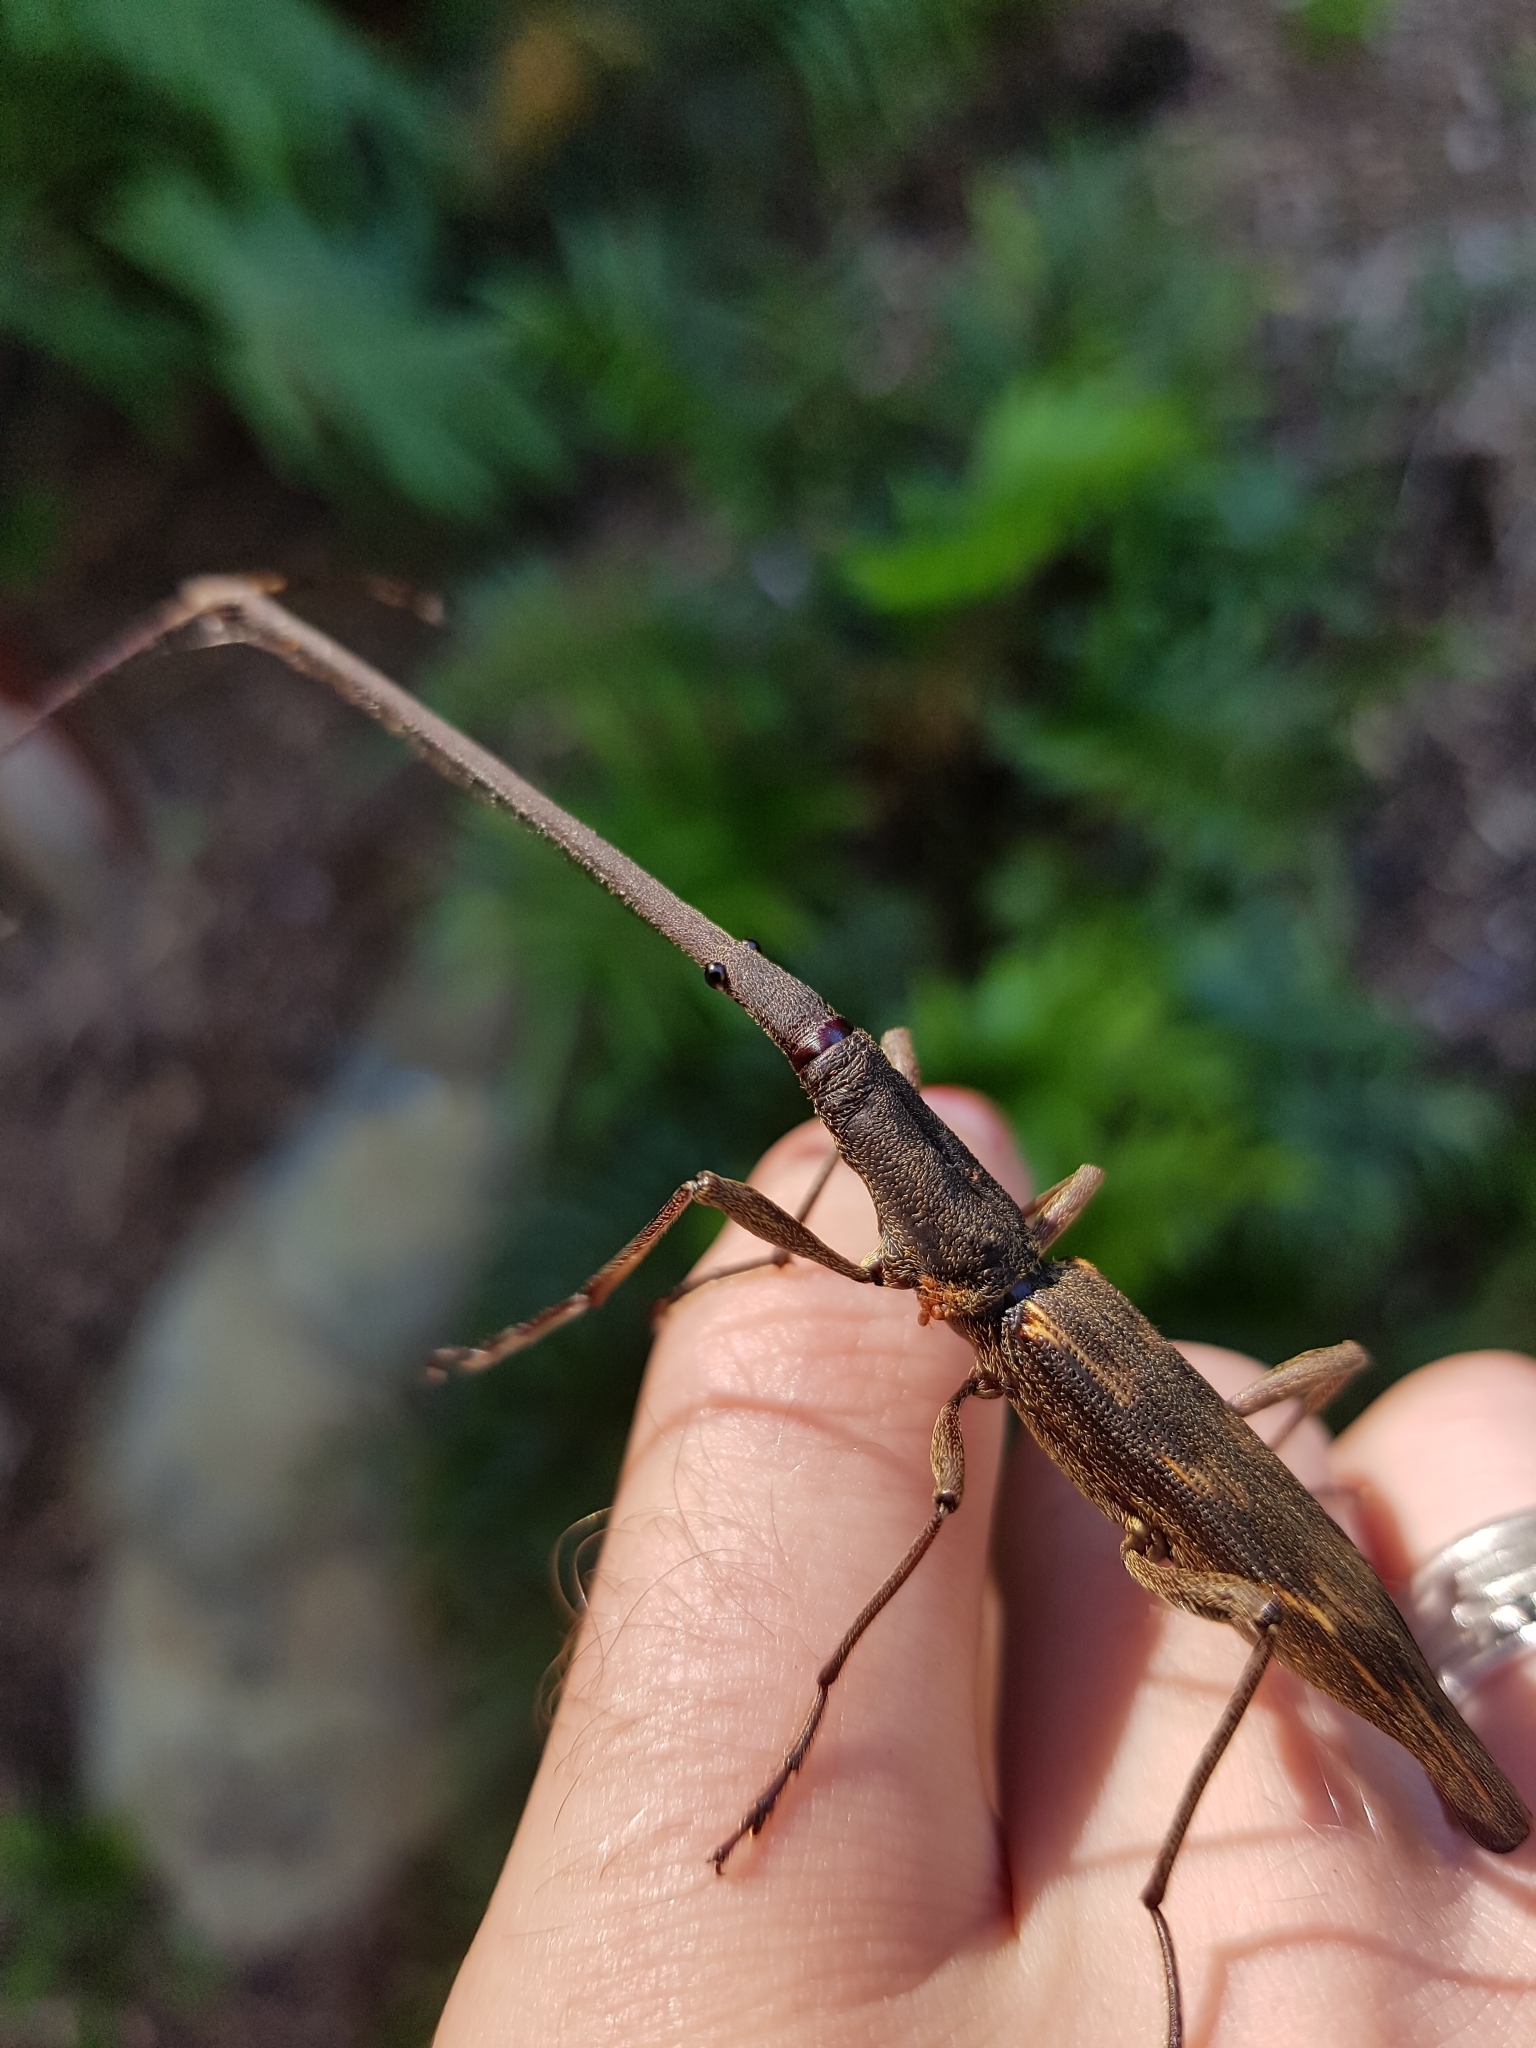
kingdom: Animalia
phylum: Arthropoda
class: Insecta
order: Coleoptera
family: Brentidae
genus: Lasiorhynchus
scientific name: Lasiorhynchus barbicornis
